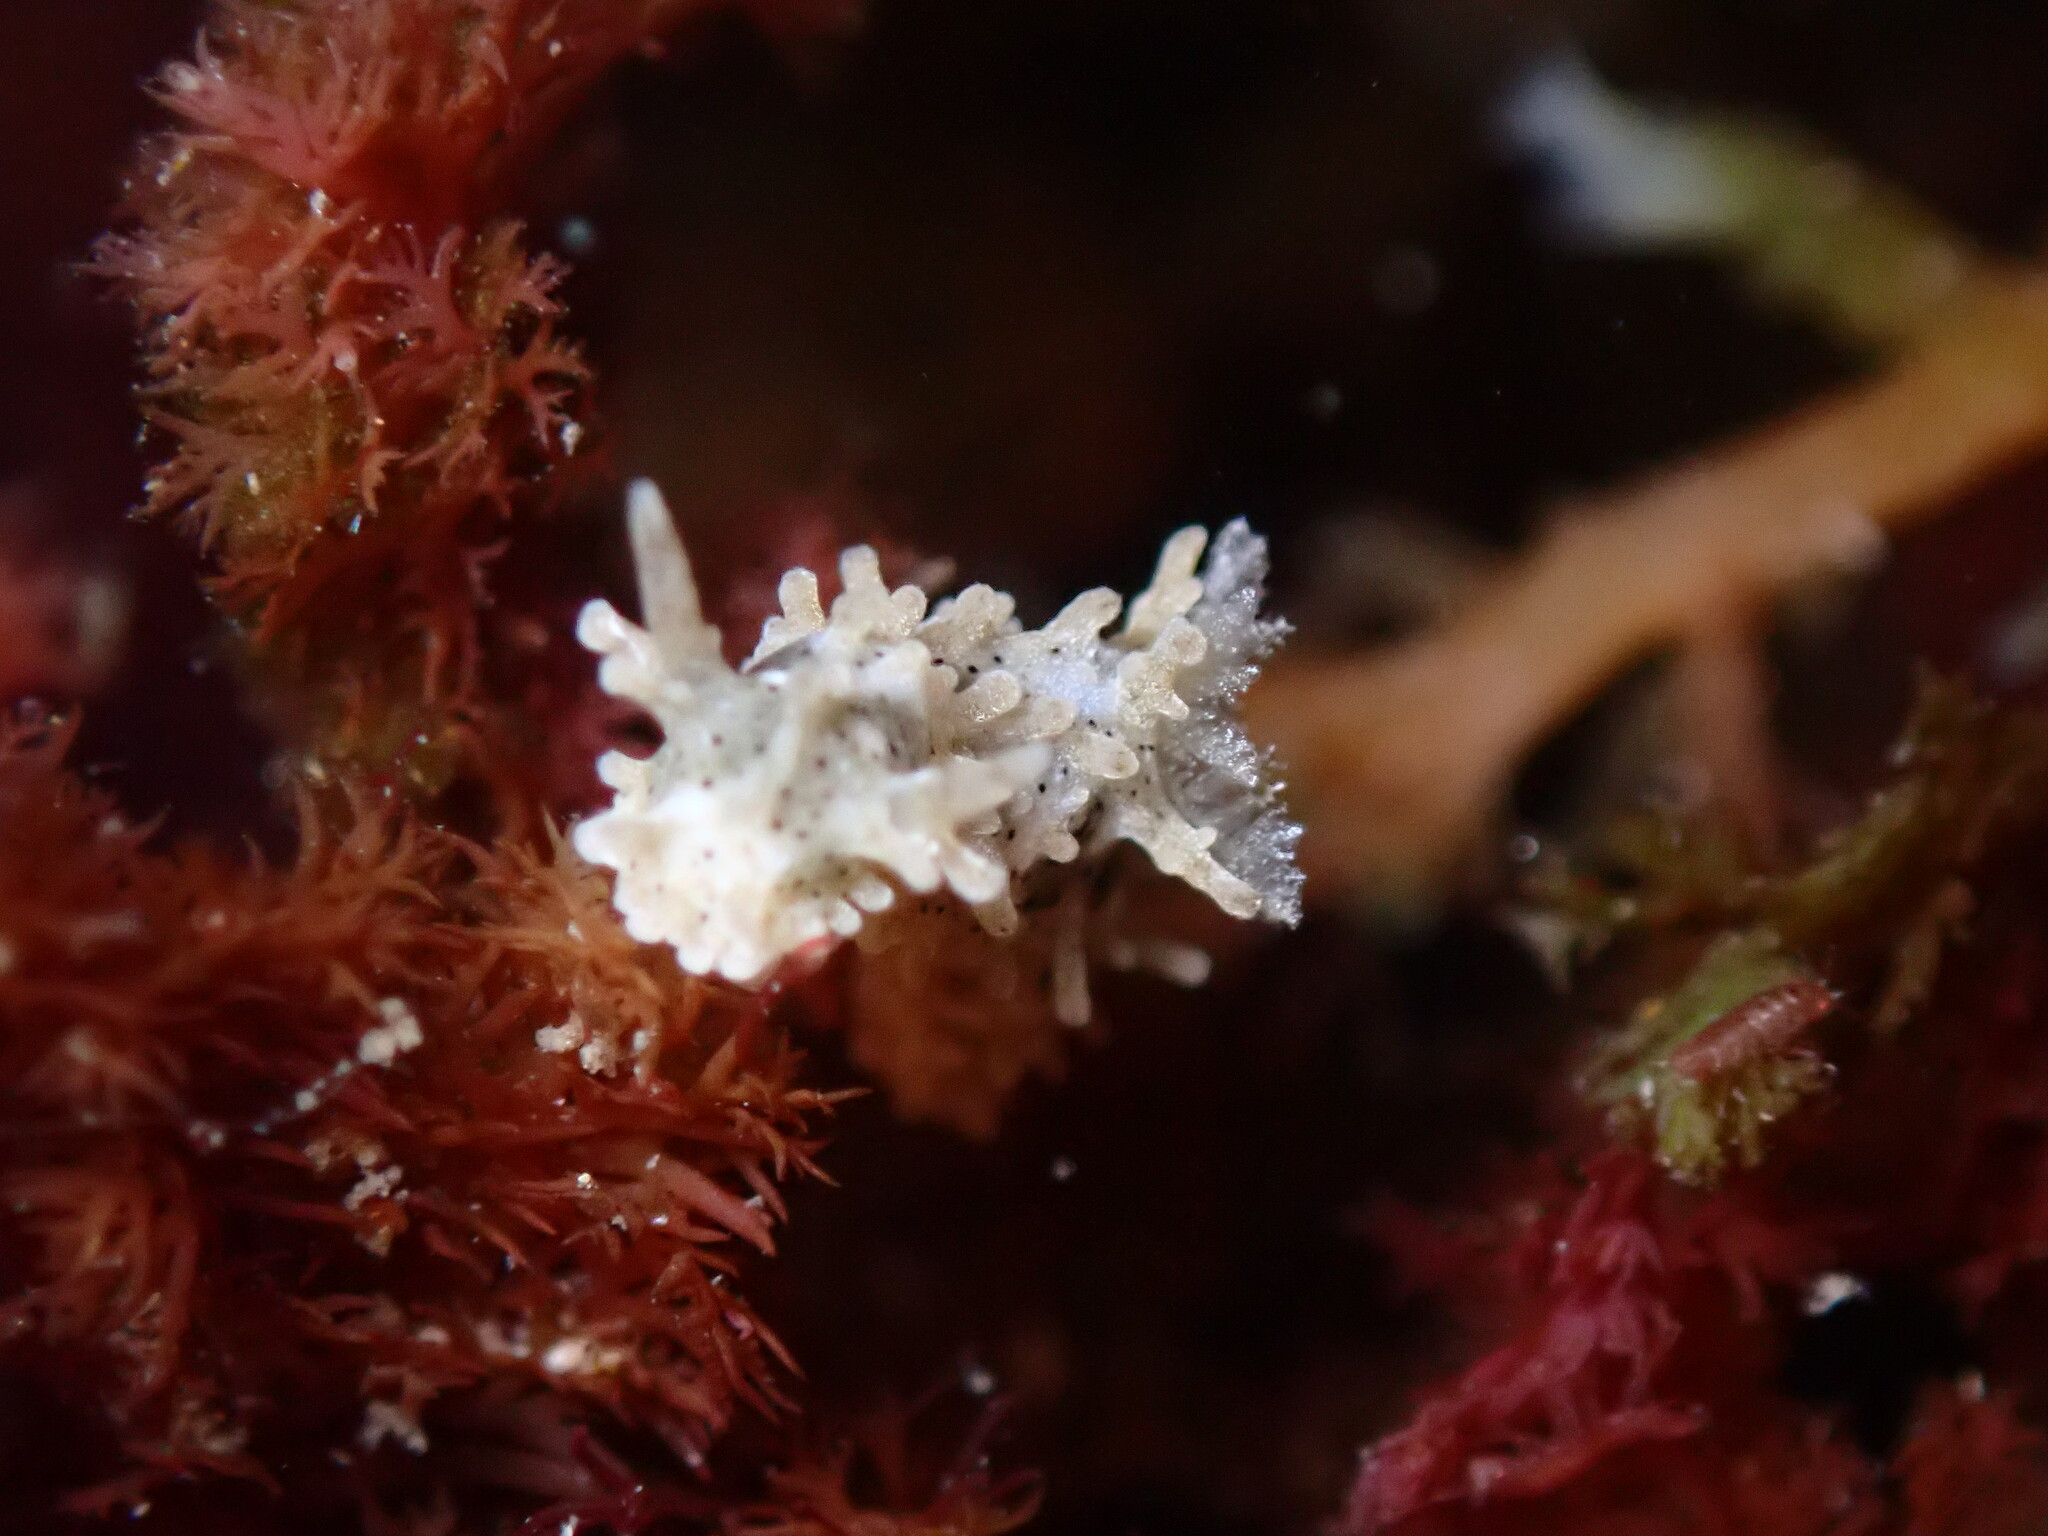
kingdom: Animalia
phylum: Mollusca
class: Gastropoda
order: Nudibranchia
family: Aegiridae
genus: Aegires
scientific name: Aegires albopunctatus
